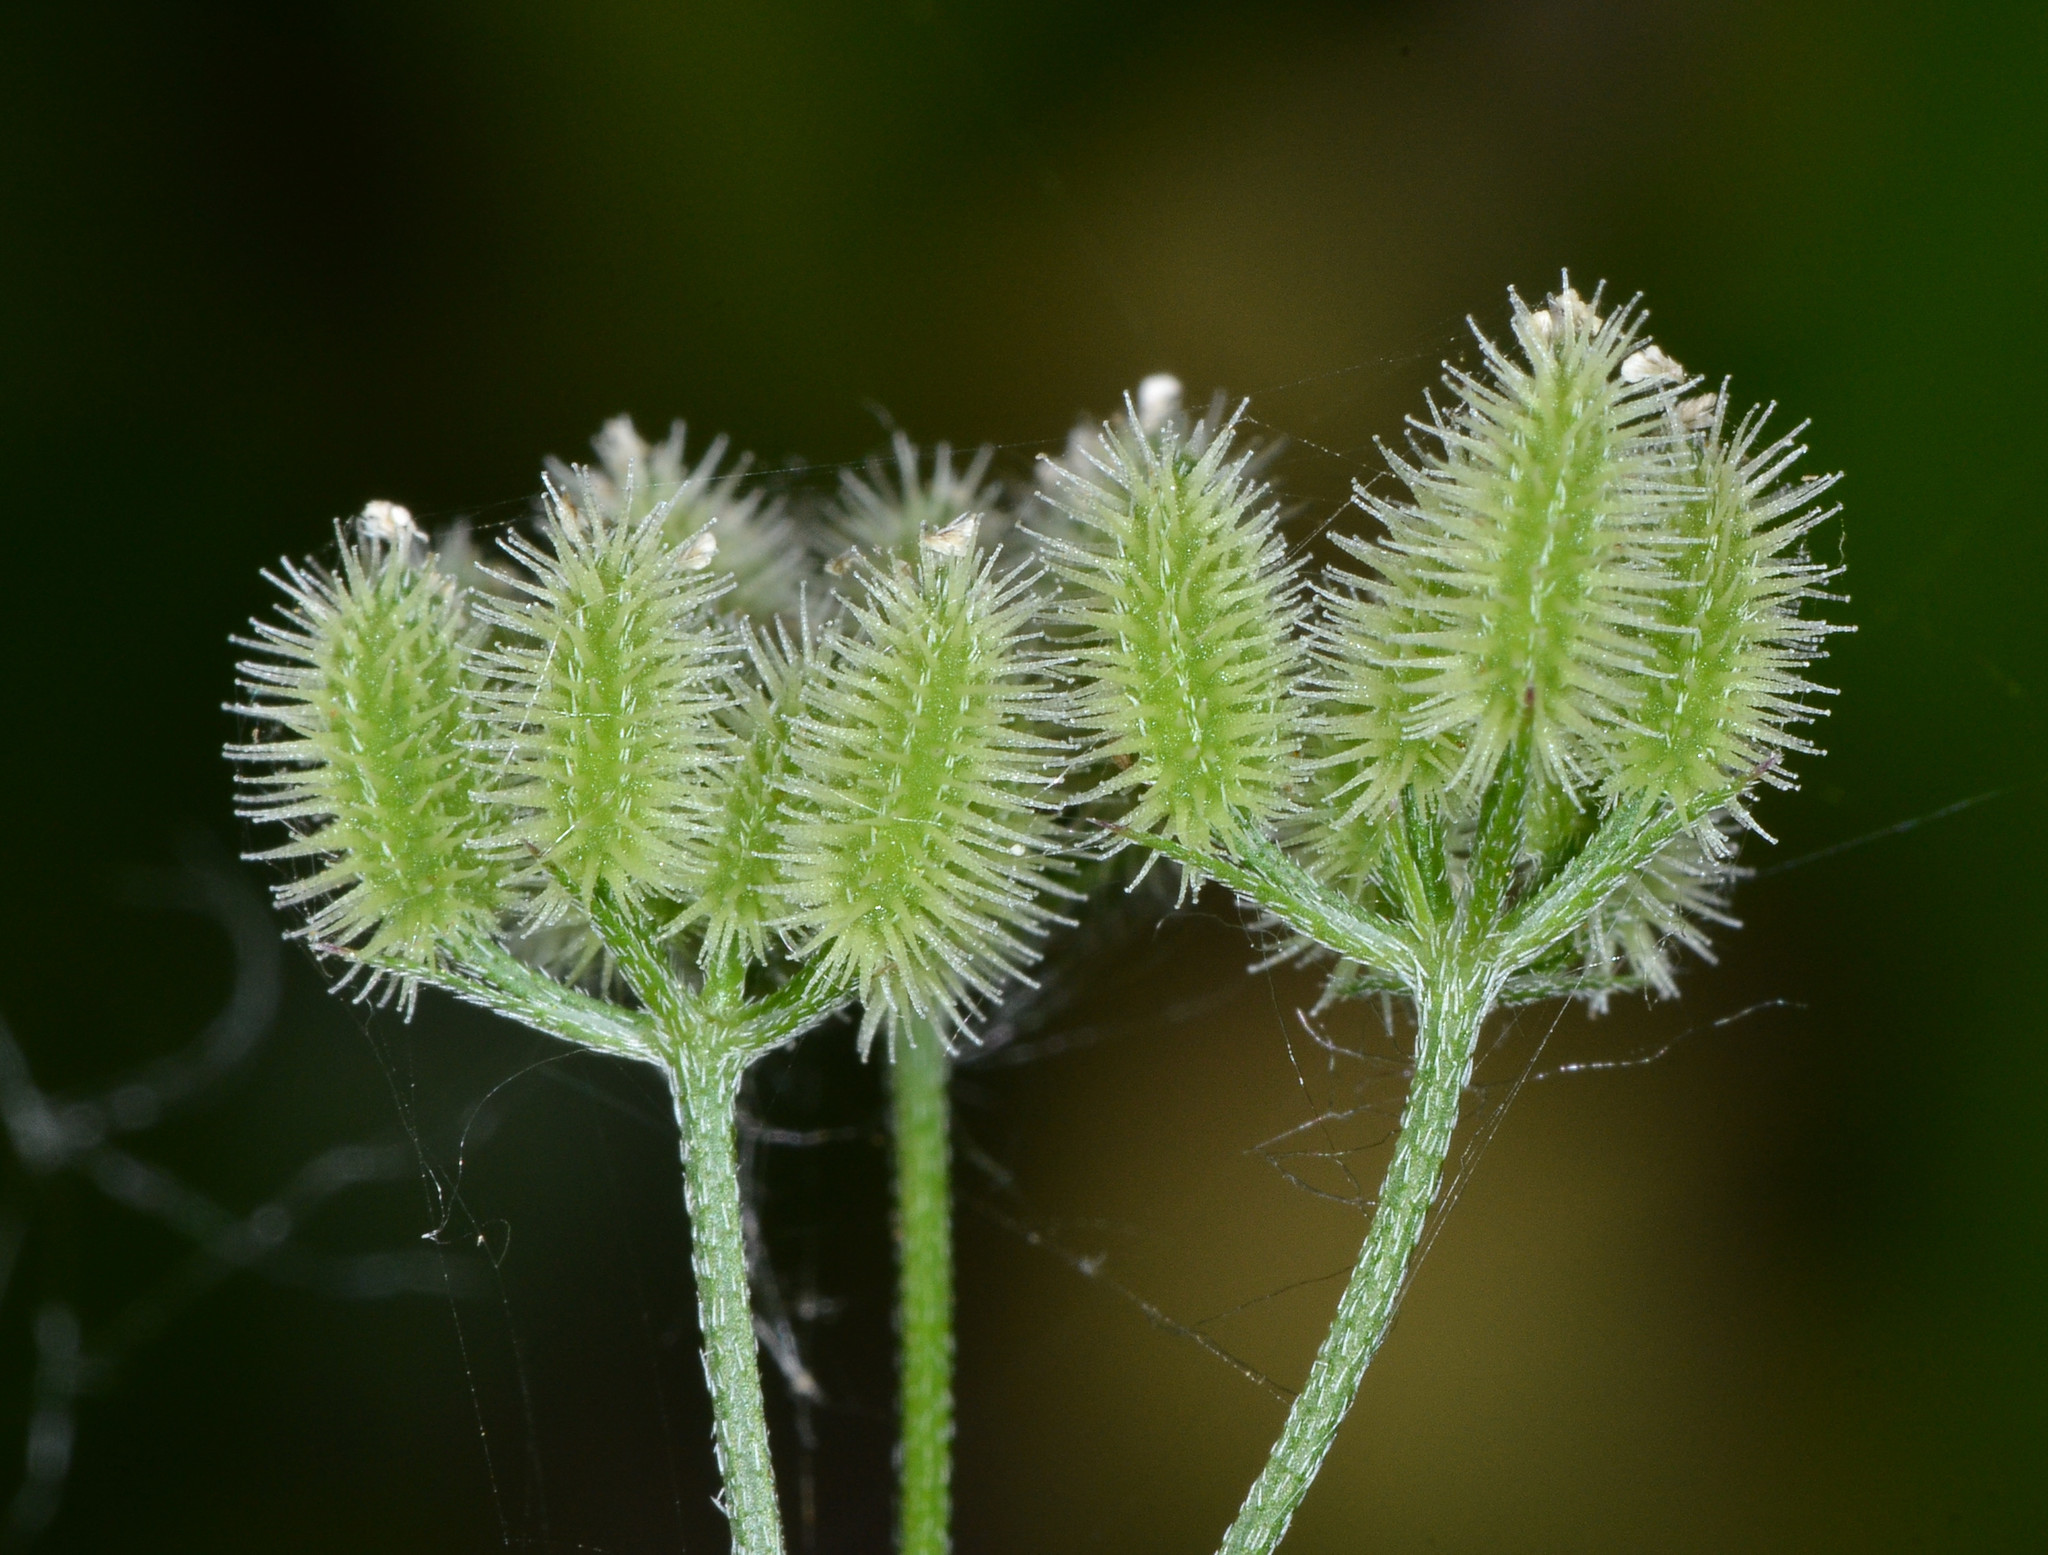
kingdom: Plantae
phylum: Tracheophyta
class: Magnoliopsida
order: Apiales
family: Apiaceae
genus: Torilis
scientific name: Torilis arvensis
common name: Spreading hedge-parsley
